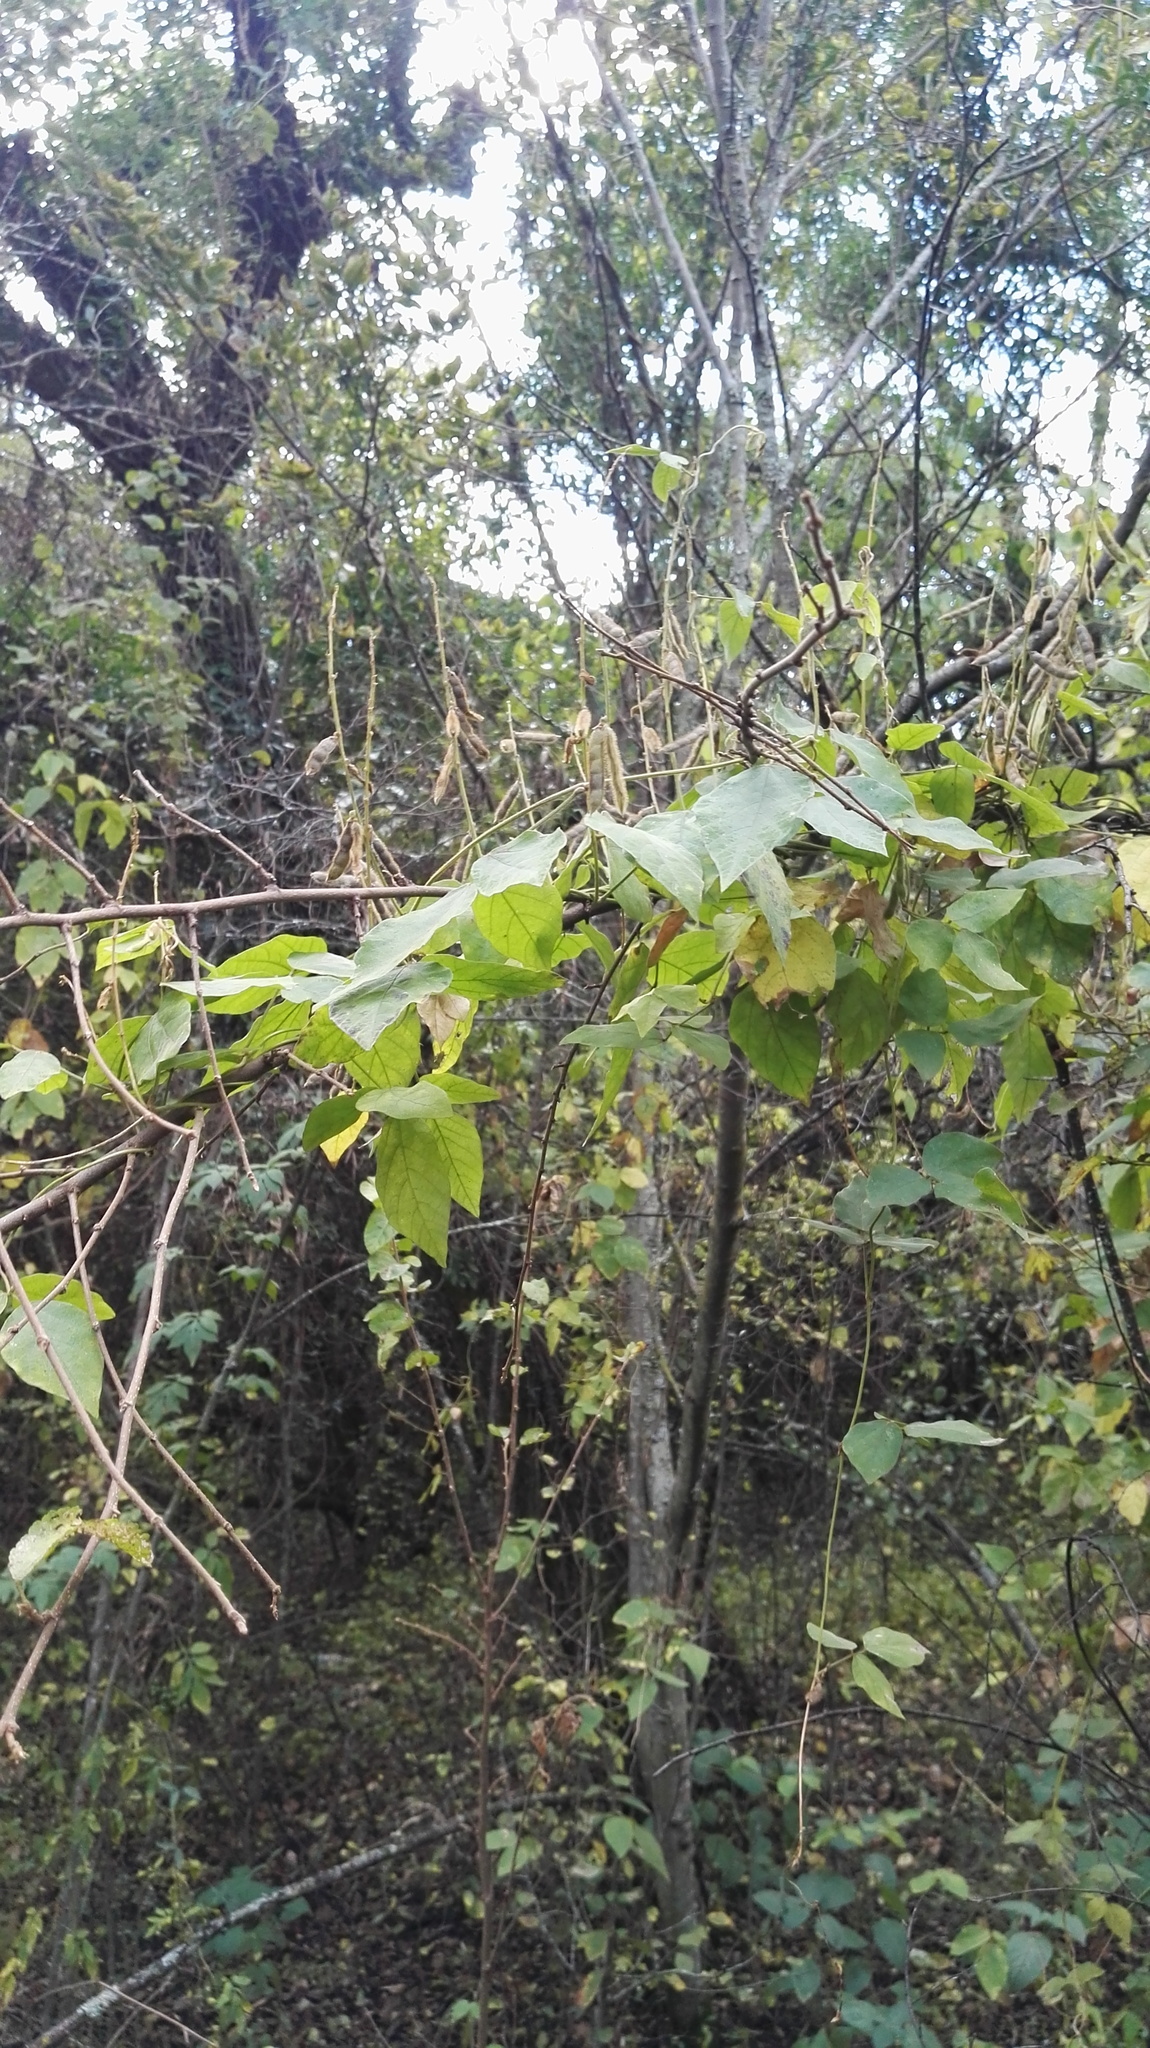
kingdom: Plantae
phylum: Tracheophyta
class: Magnoliopsida
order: Fabales
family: Fabaceae
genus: Neonotonia
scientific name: Neonotonia wightii
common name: Perennial soybean
